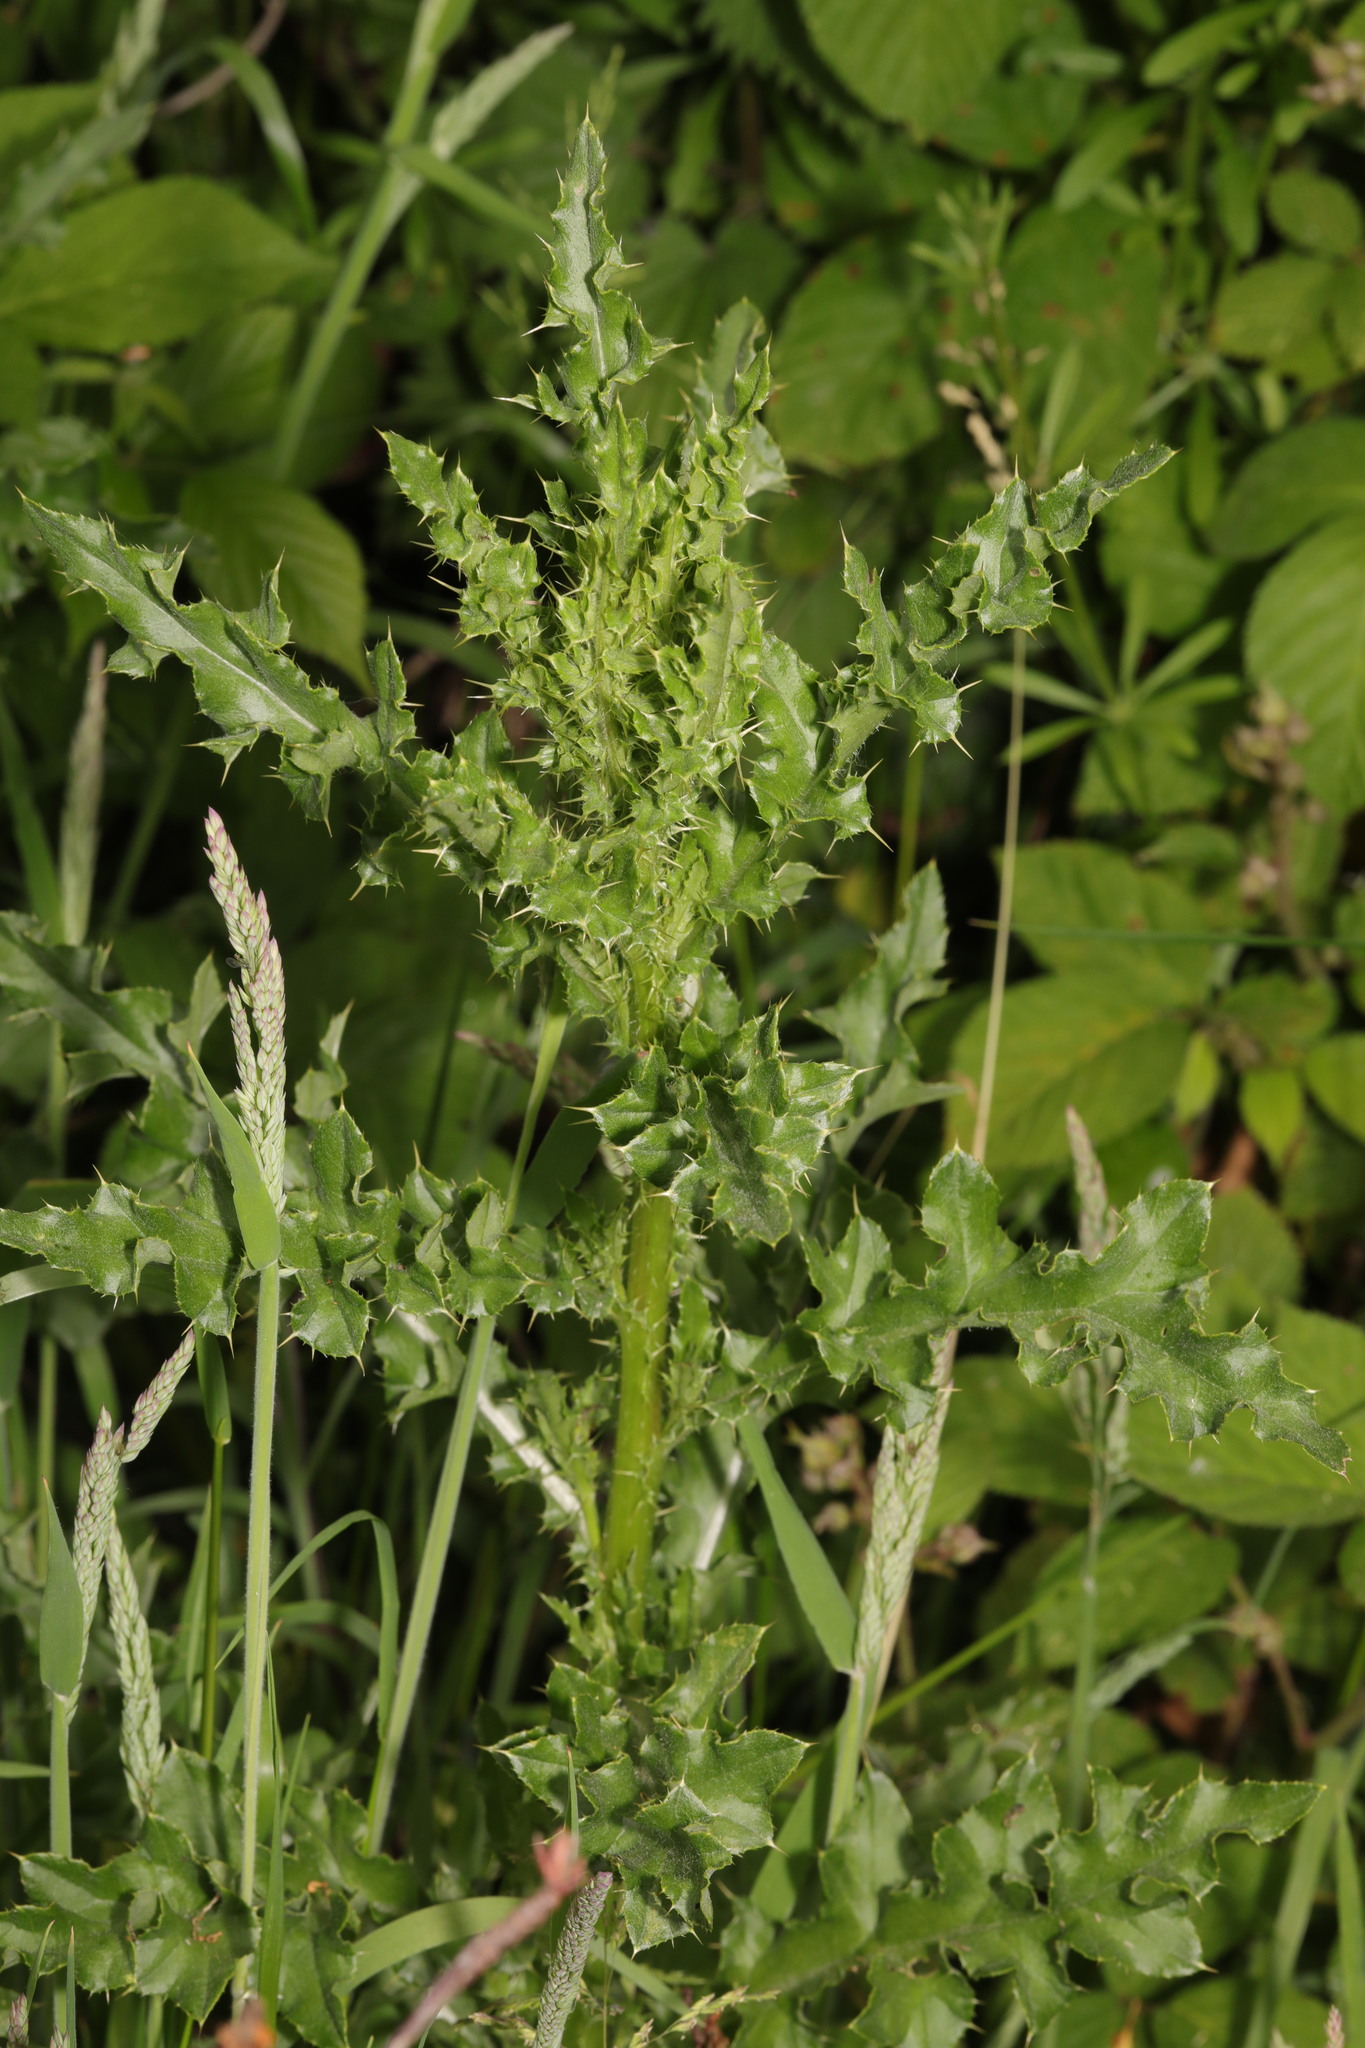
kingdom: Plantae
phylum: Tracheophyta
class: Magnoliopsida
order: Asterales
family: Asteraceae
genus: Cirsium
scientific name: Cirsium arvense
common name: Creeping thistle
